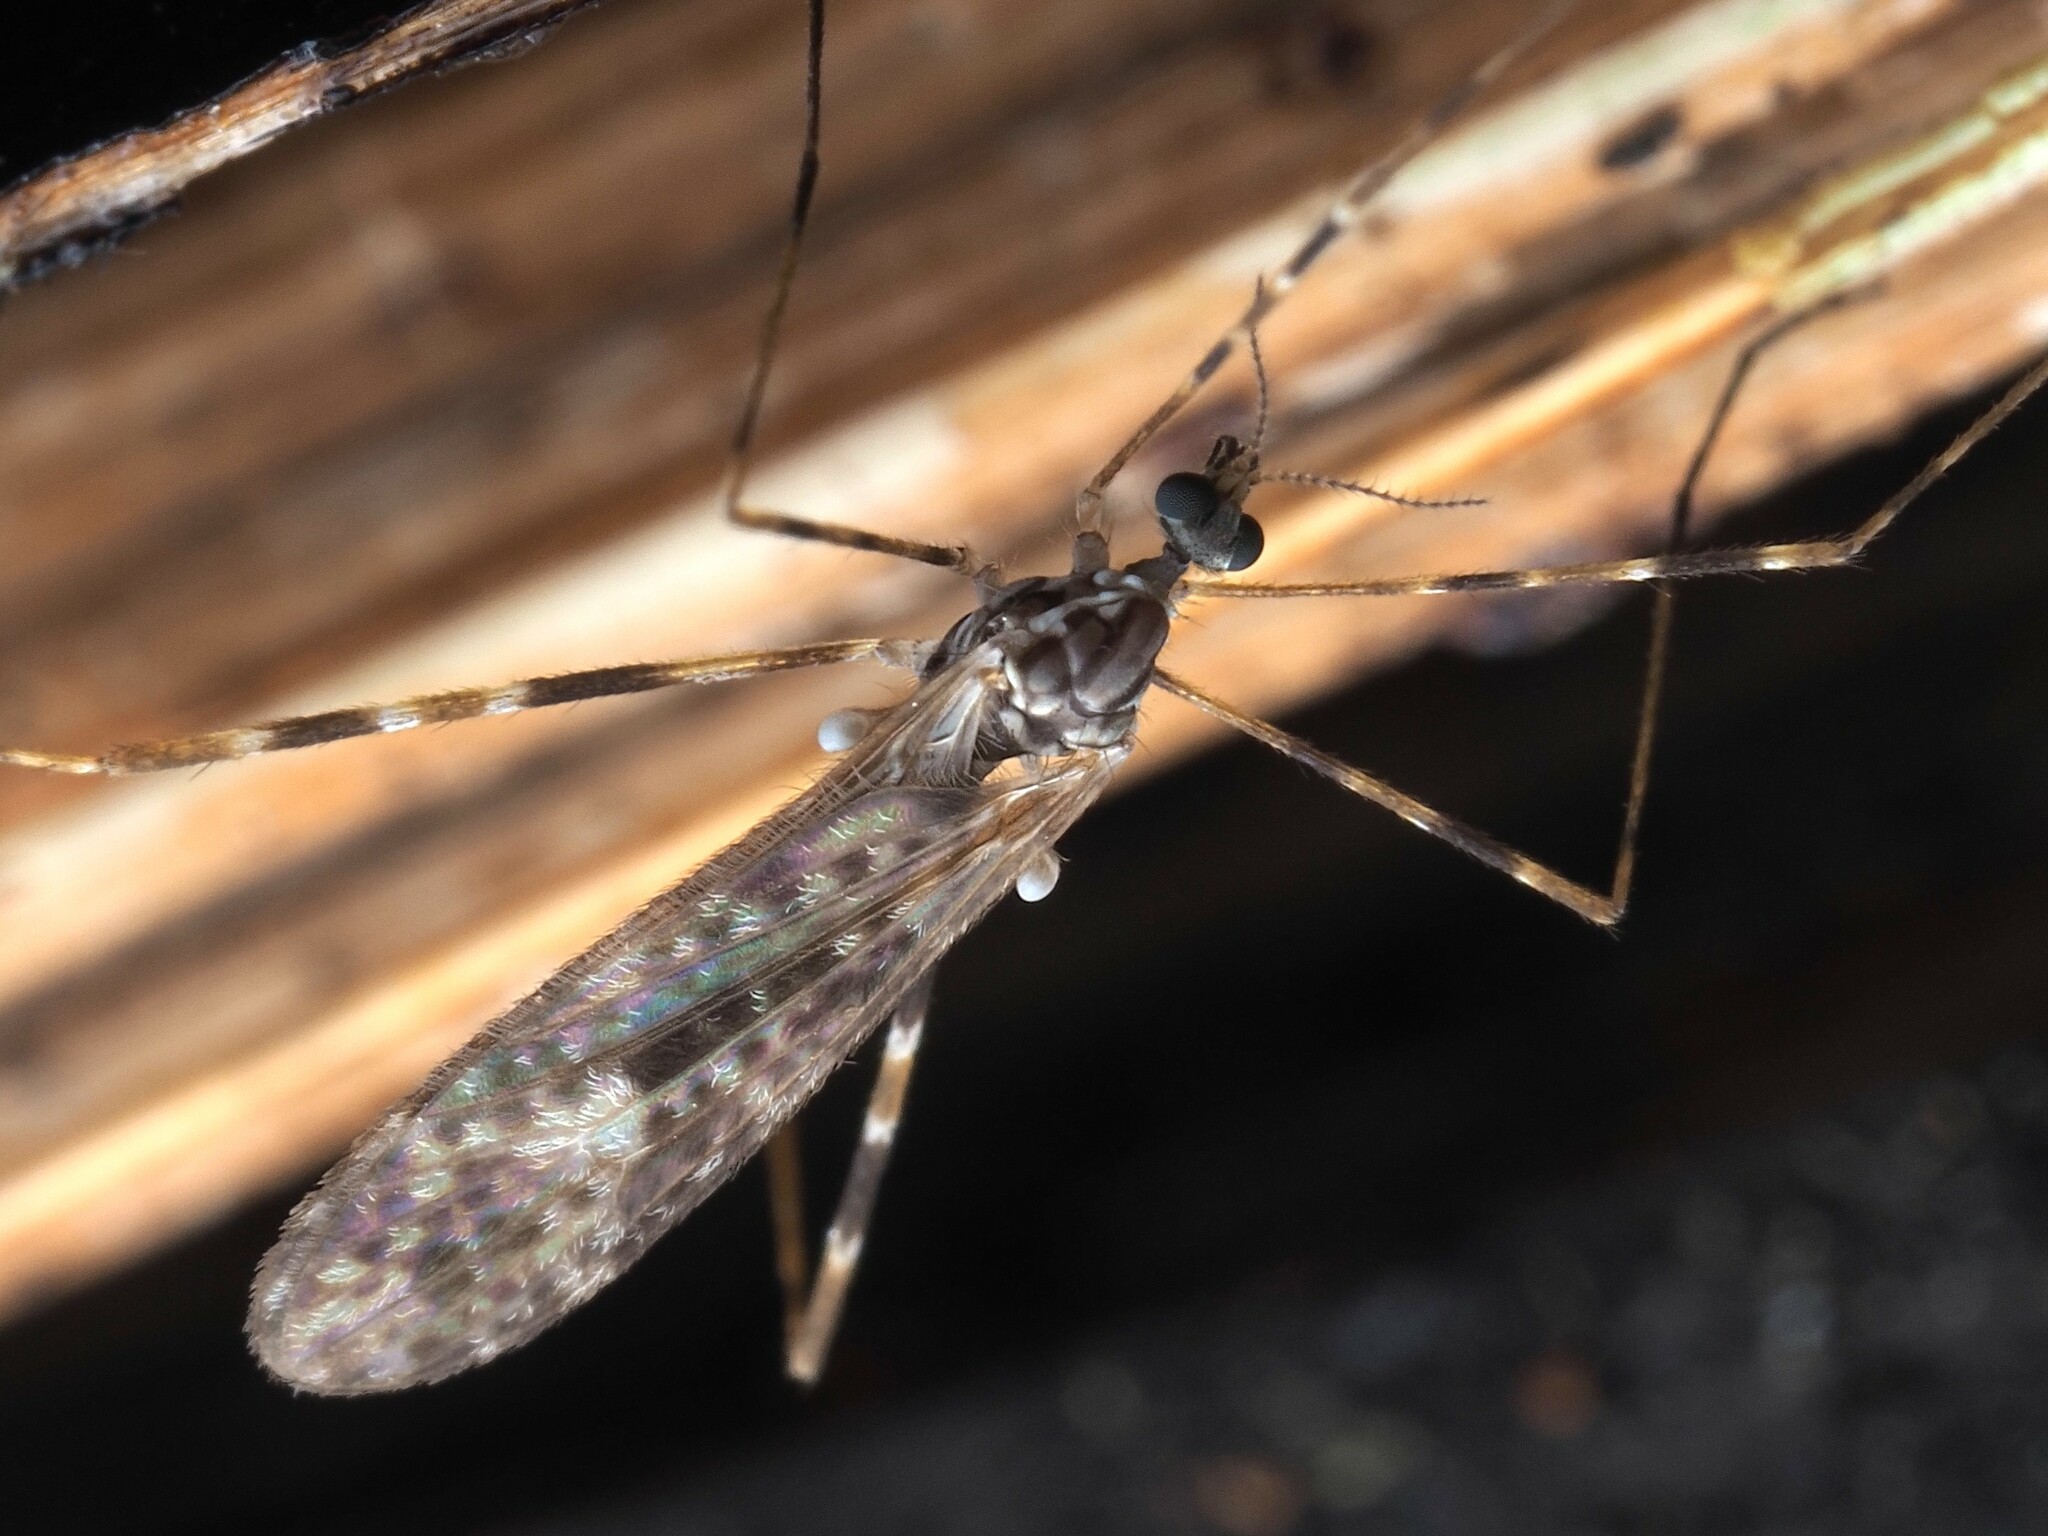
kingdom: Animalia
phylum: Arthropoda
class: Insecta
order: Diptera
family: Limoniidae
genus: Amphineurus
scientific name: Amphineurus hudsoni
